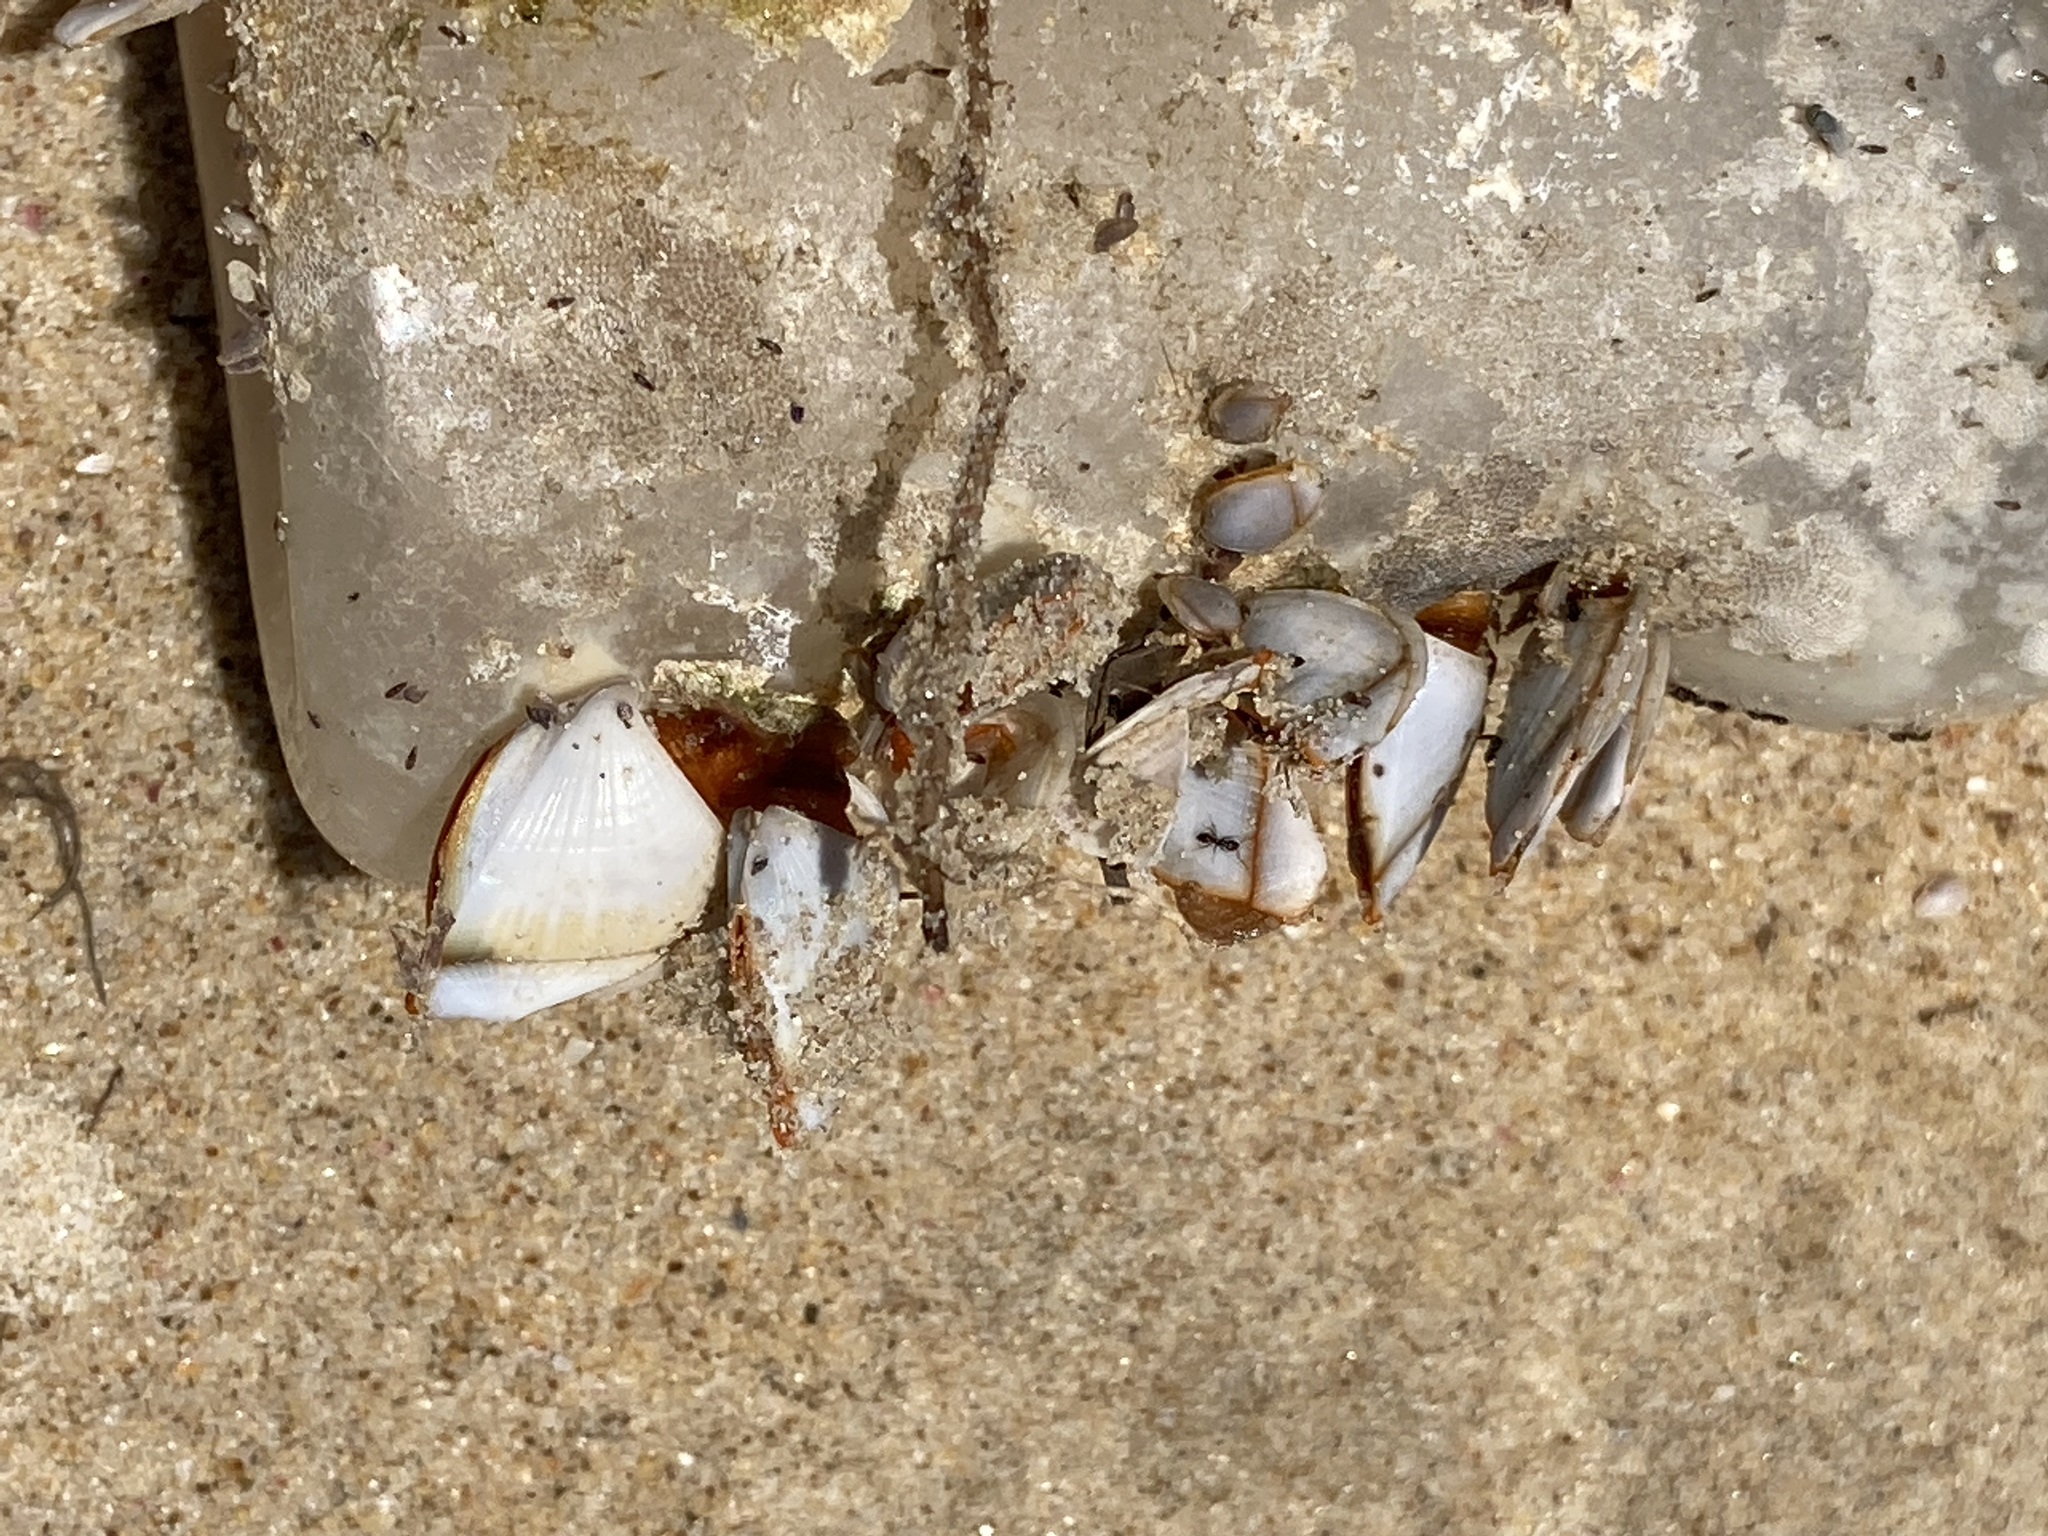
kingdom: Animalia
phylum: Arthropoda
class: Maxillopoda
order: Pedunculata
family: Lepadidae
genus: Lepas
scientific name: Lepas anserifera
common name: Goose barnacle
